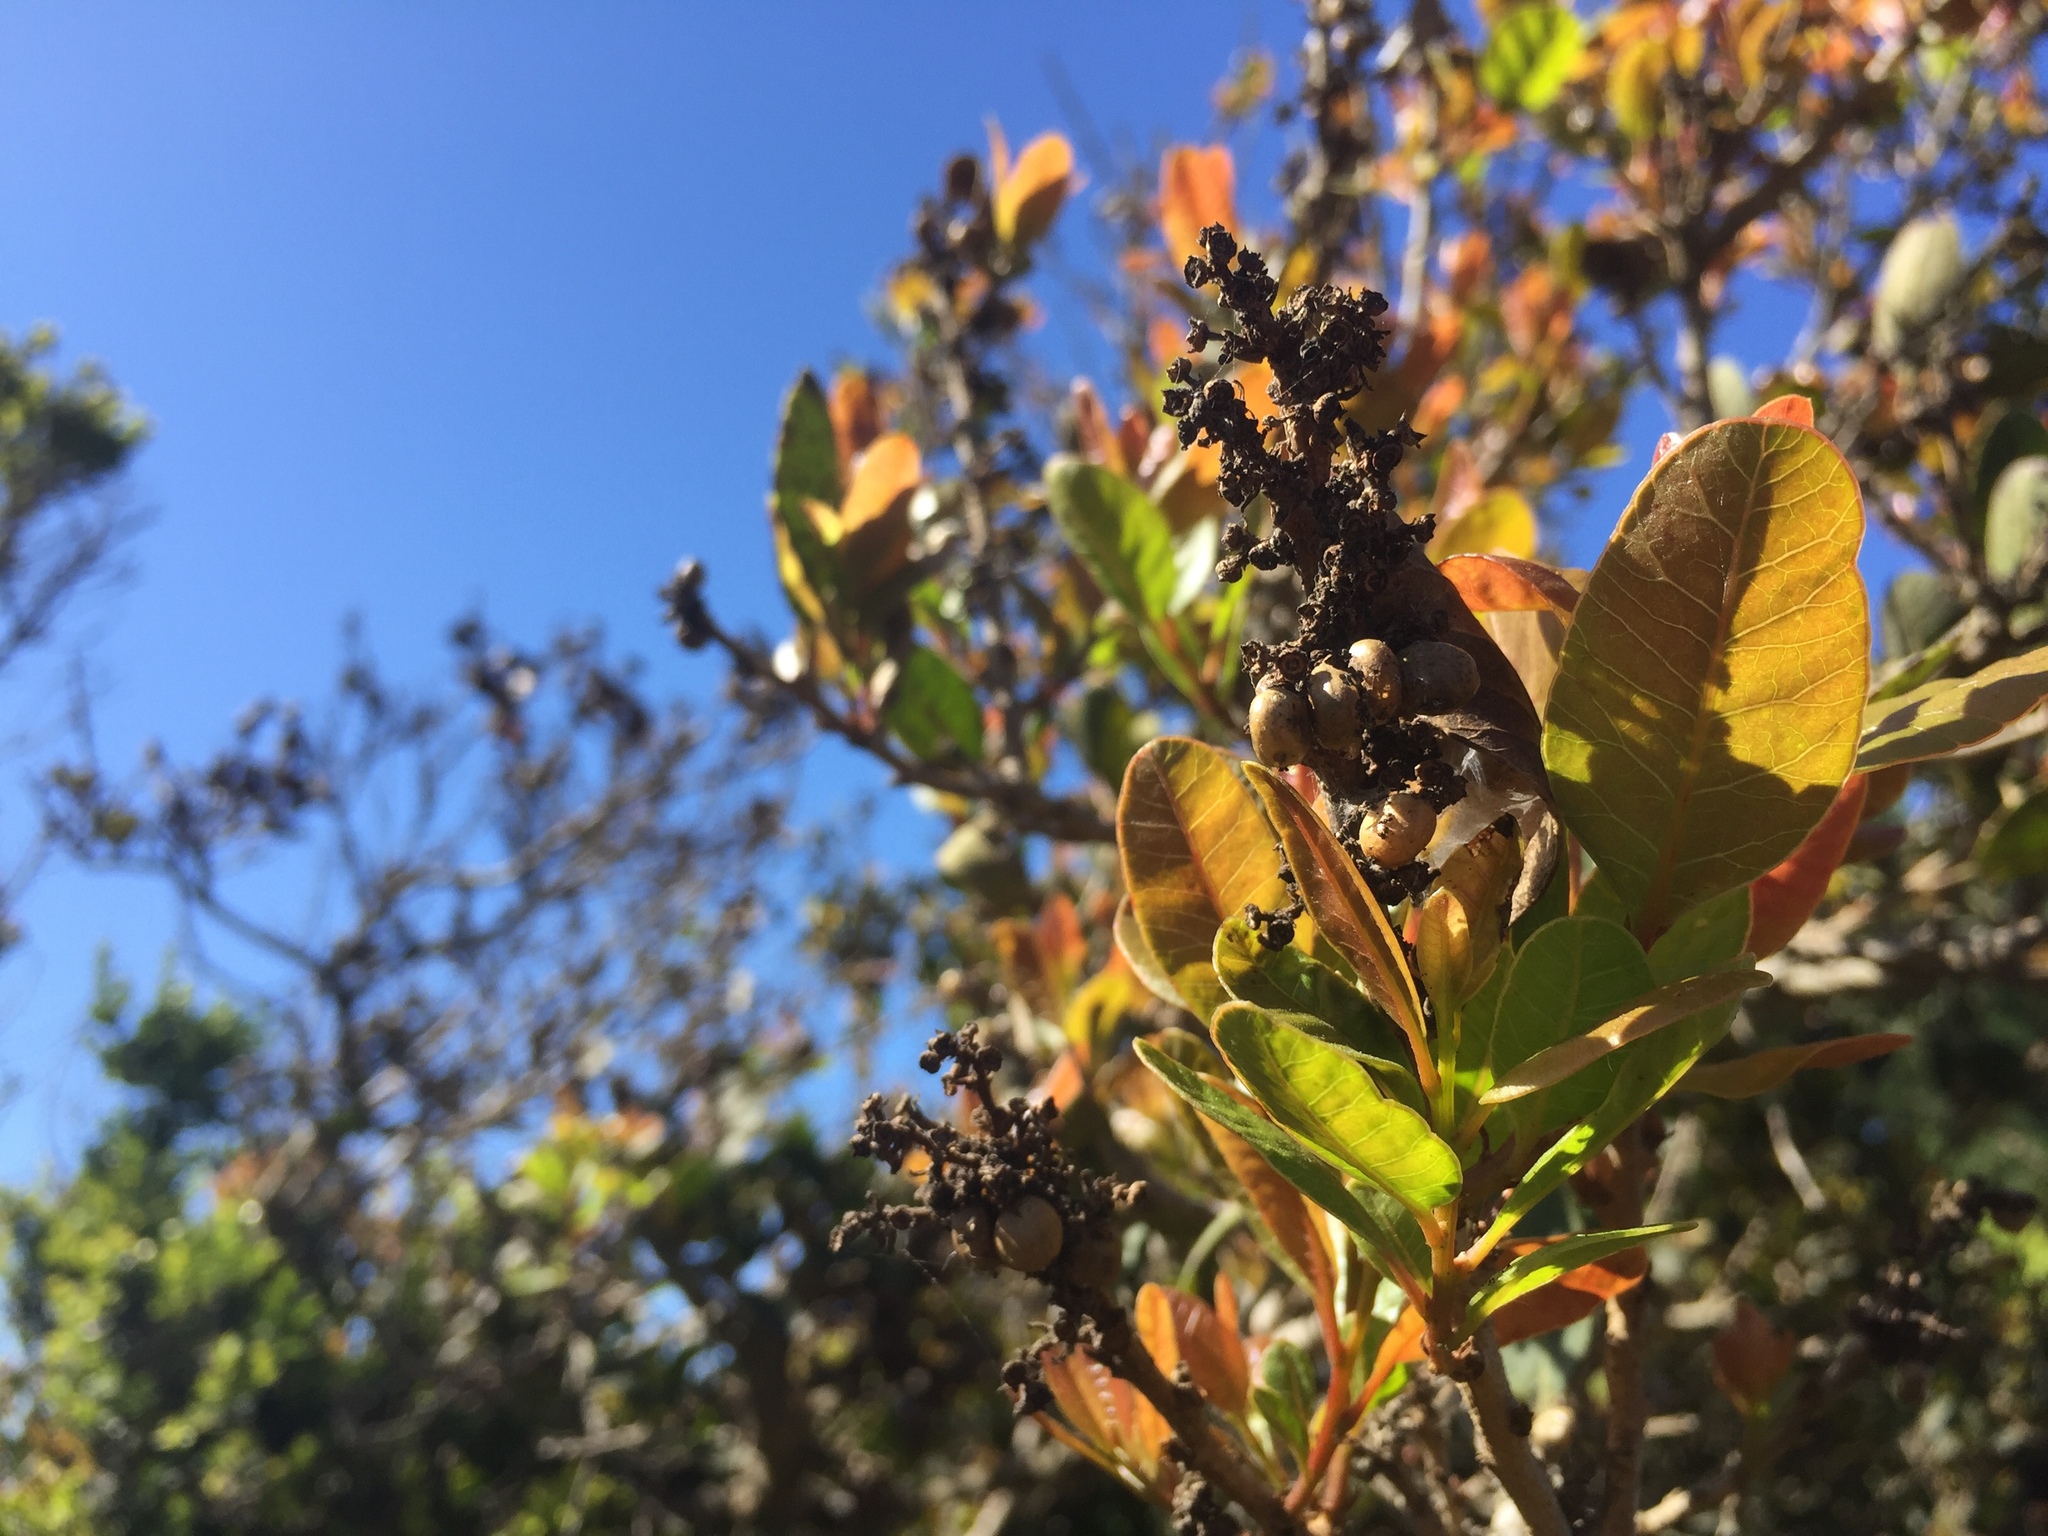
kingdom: Plantae
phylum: Tracheophyta
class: Magnoliopsida
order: Sapindales
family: Anacardiaceae
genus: Lithraea
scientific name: Lithraea caustica
